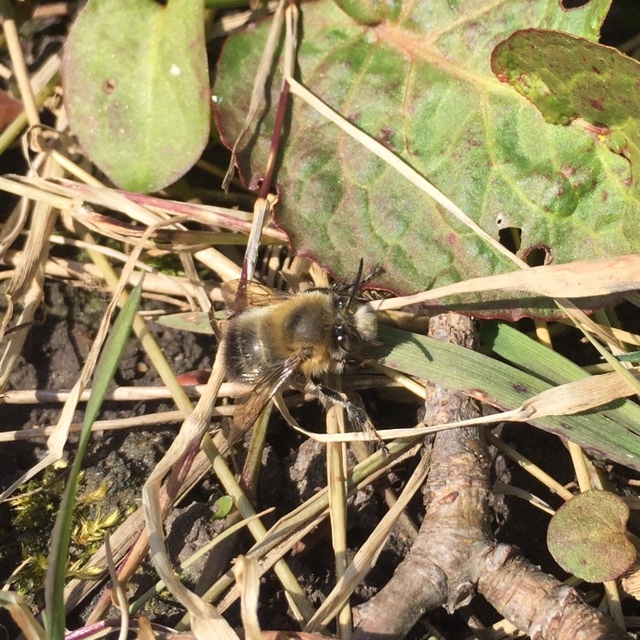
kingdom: Animalia
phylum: Arthropoda
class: Insecta
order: Hymenoptera
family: Apidae
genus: Anthophora
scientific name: Anthophora plumipes
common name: Hairy-footed flower bee
